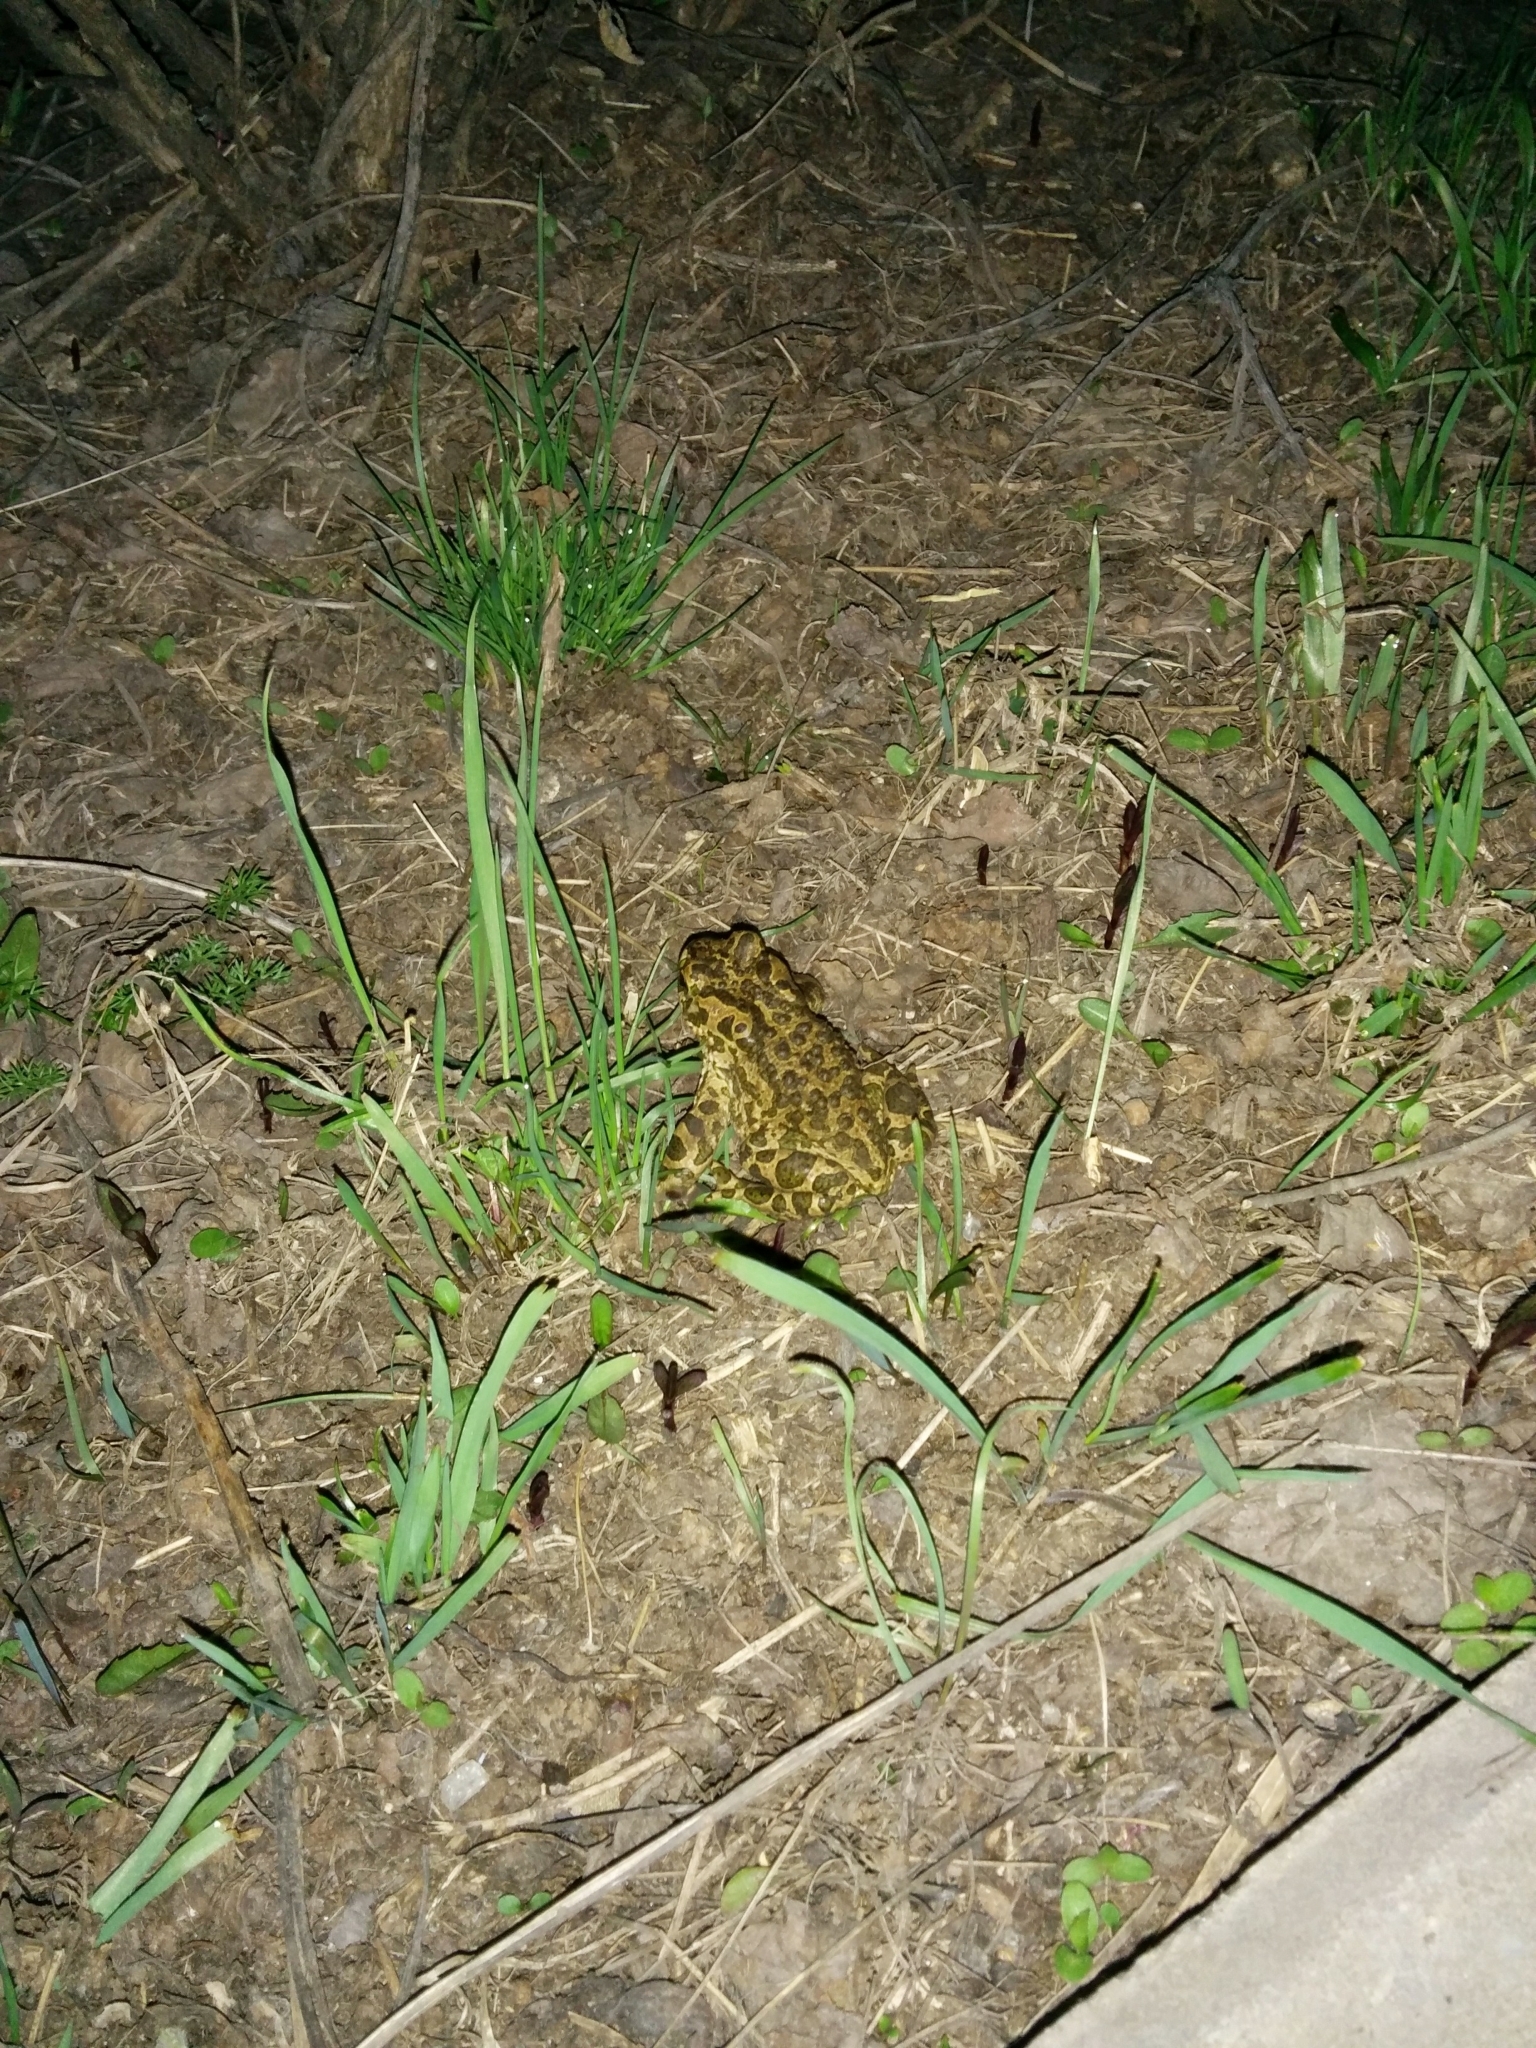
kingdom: Animalia
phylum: Chordata
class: Amphibia
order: Anura
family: Bufonidae
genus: Bufotes
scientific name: Bufotes viridis
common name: European green toad
